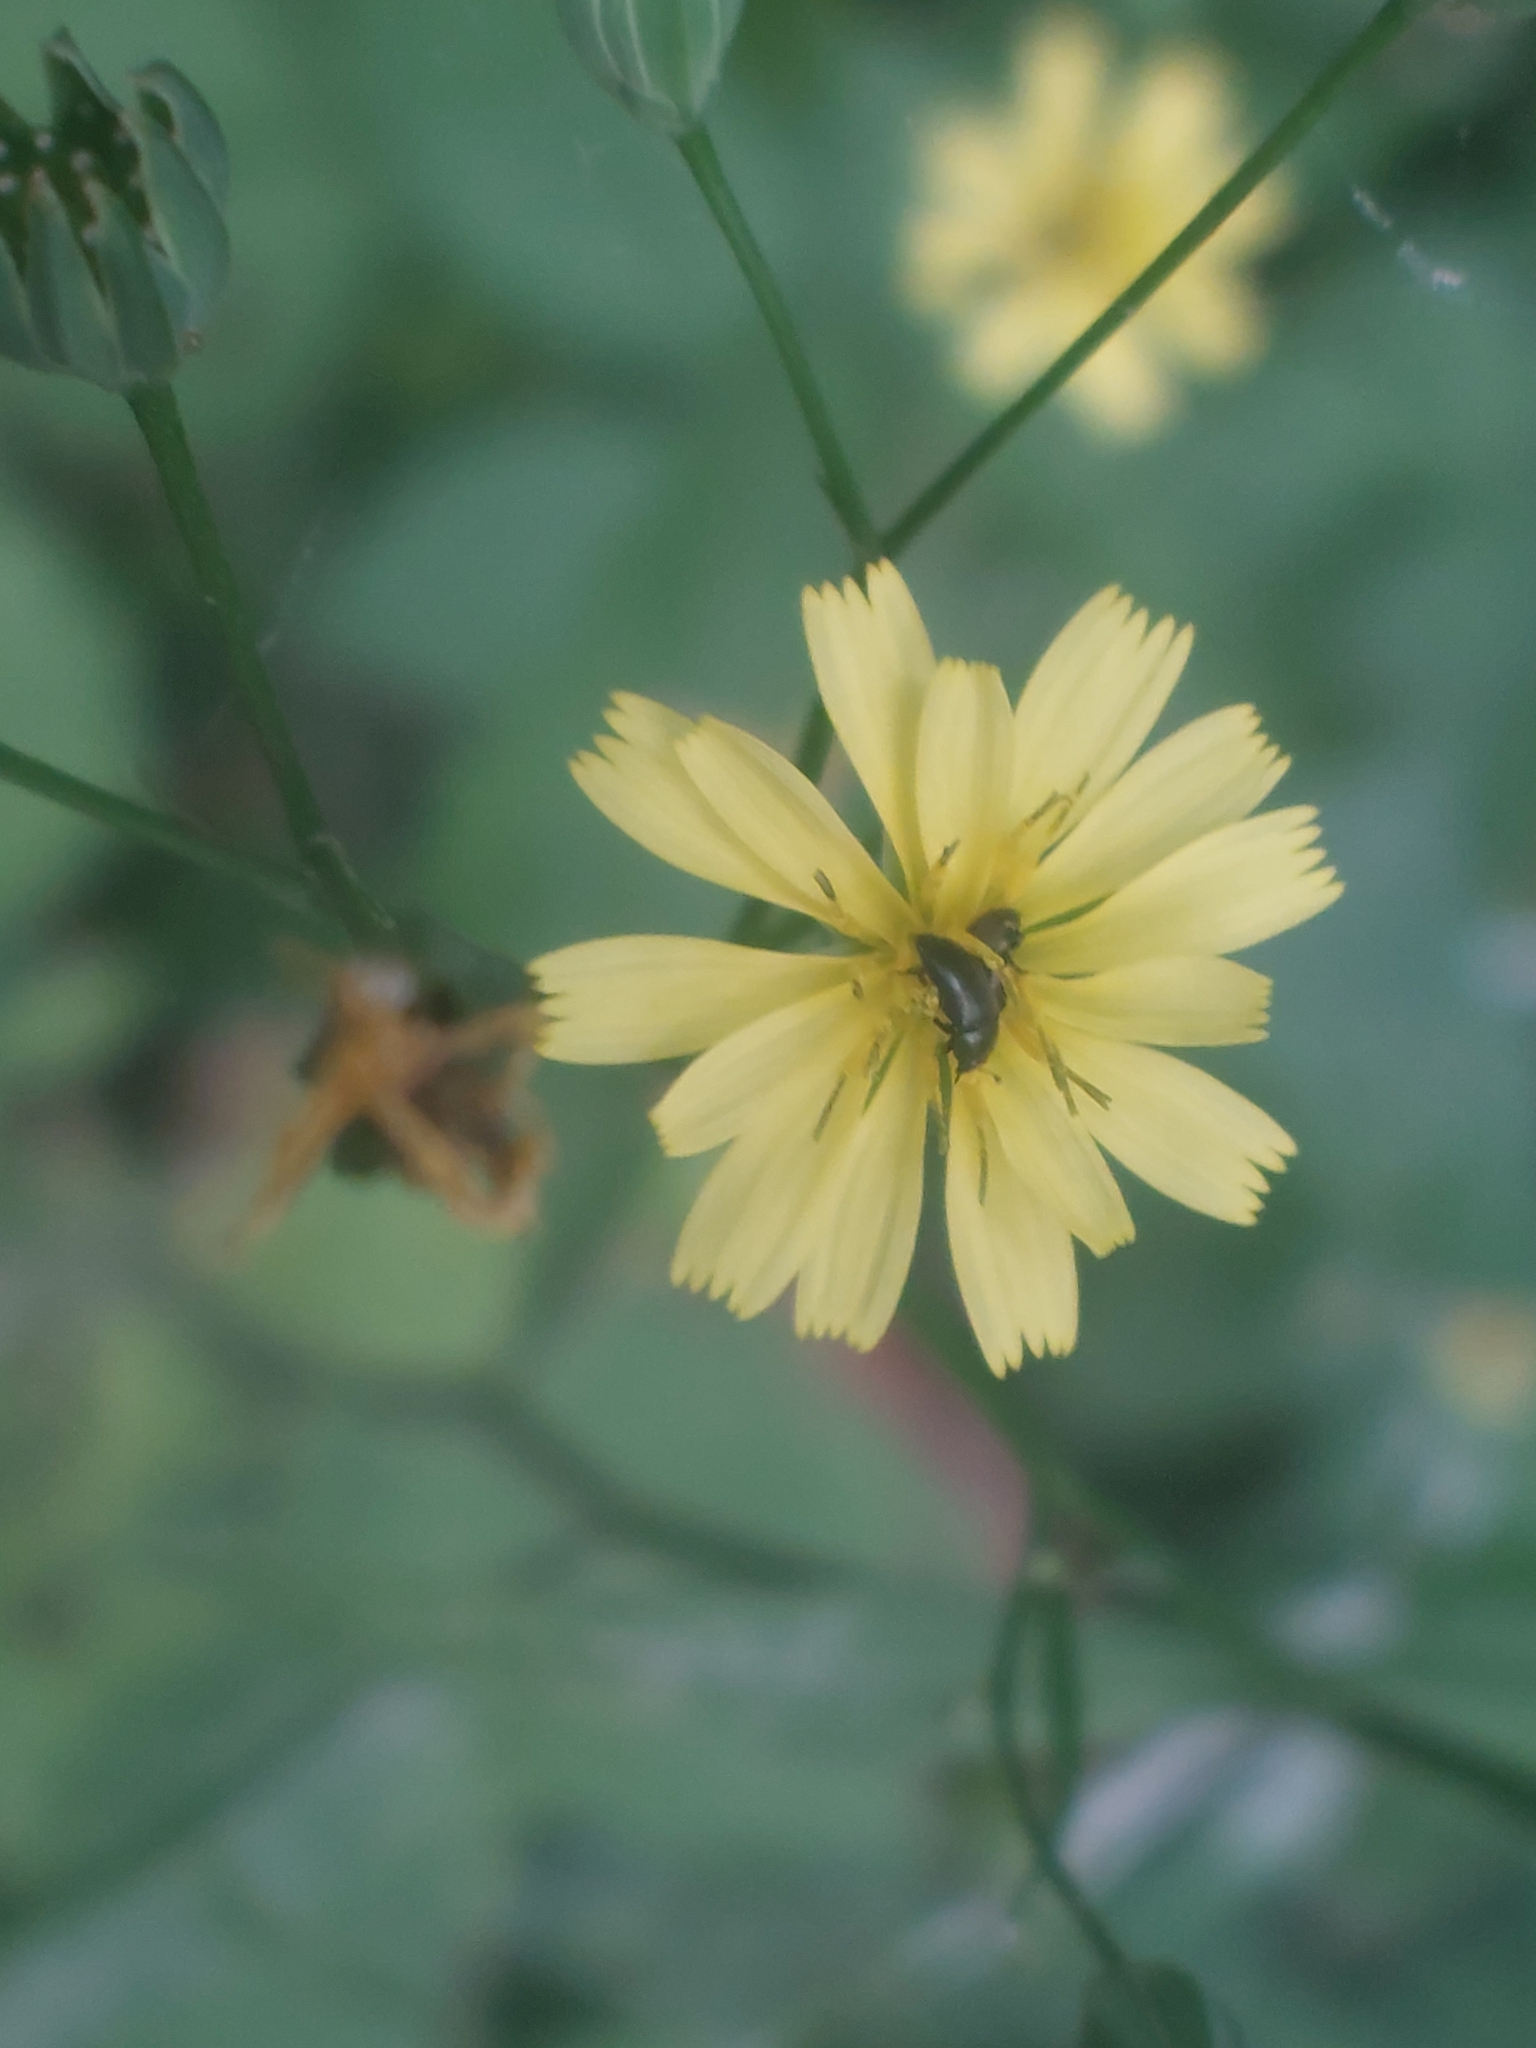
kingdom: Plantae
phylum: Tracheophyta
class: Magnoliopsida
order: Asterales
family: Asteraceae
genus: Lapsana
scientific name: Lapsana communis
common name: Nipplewort
